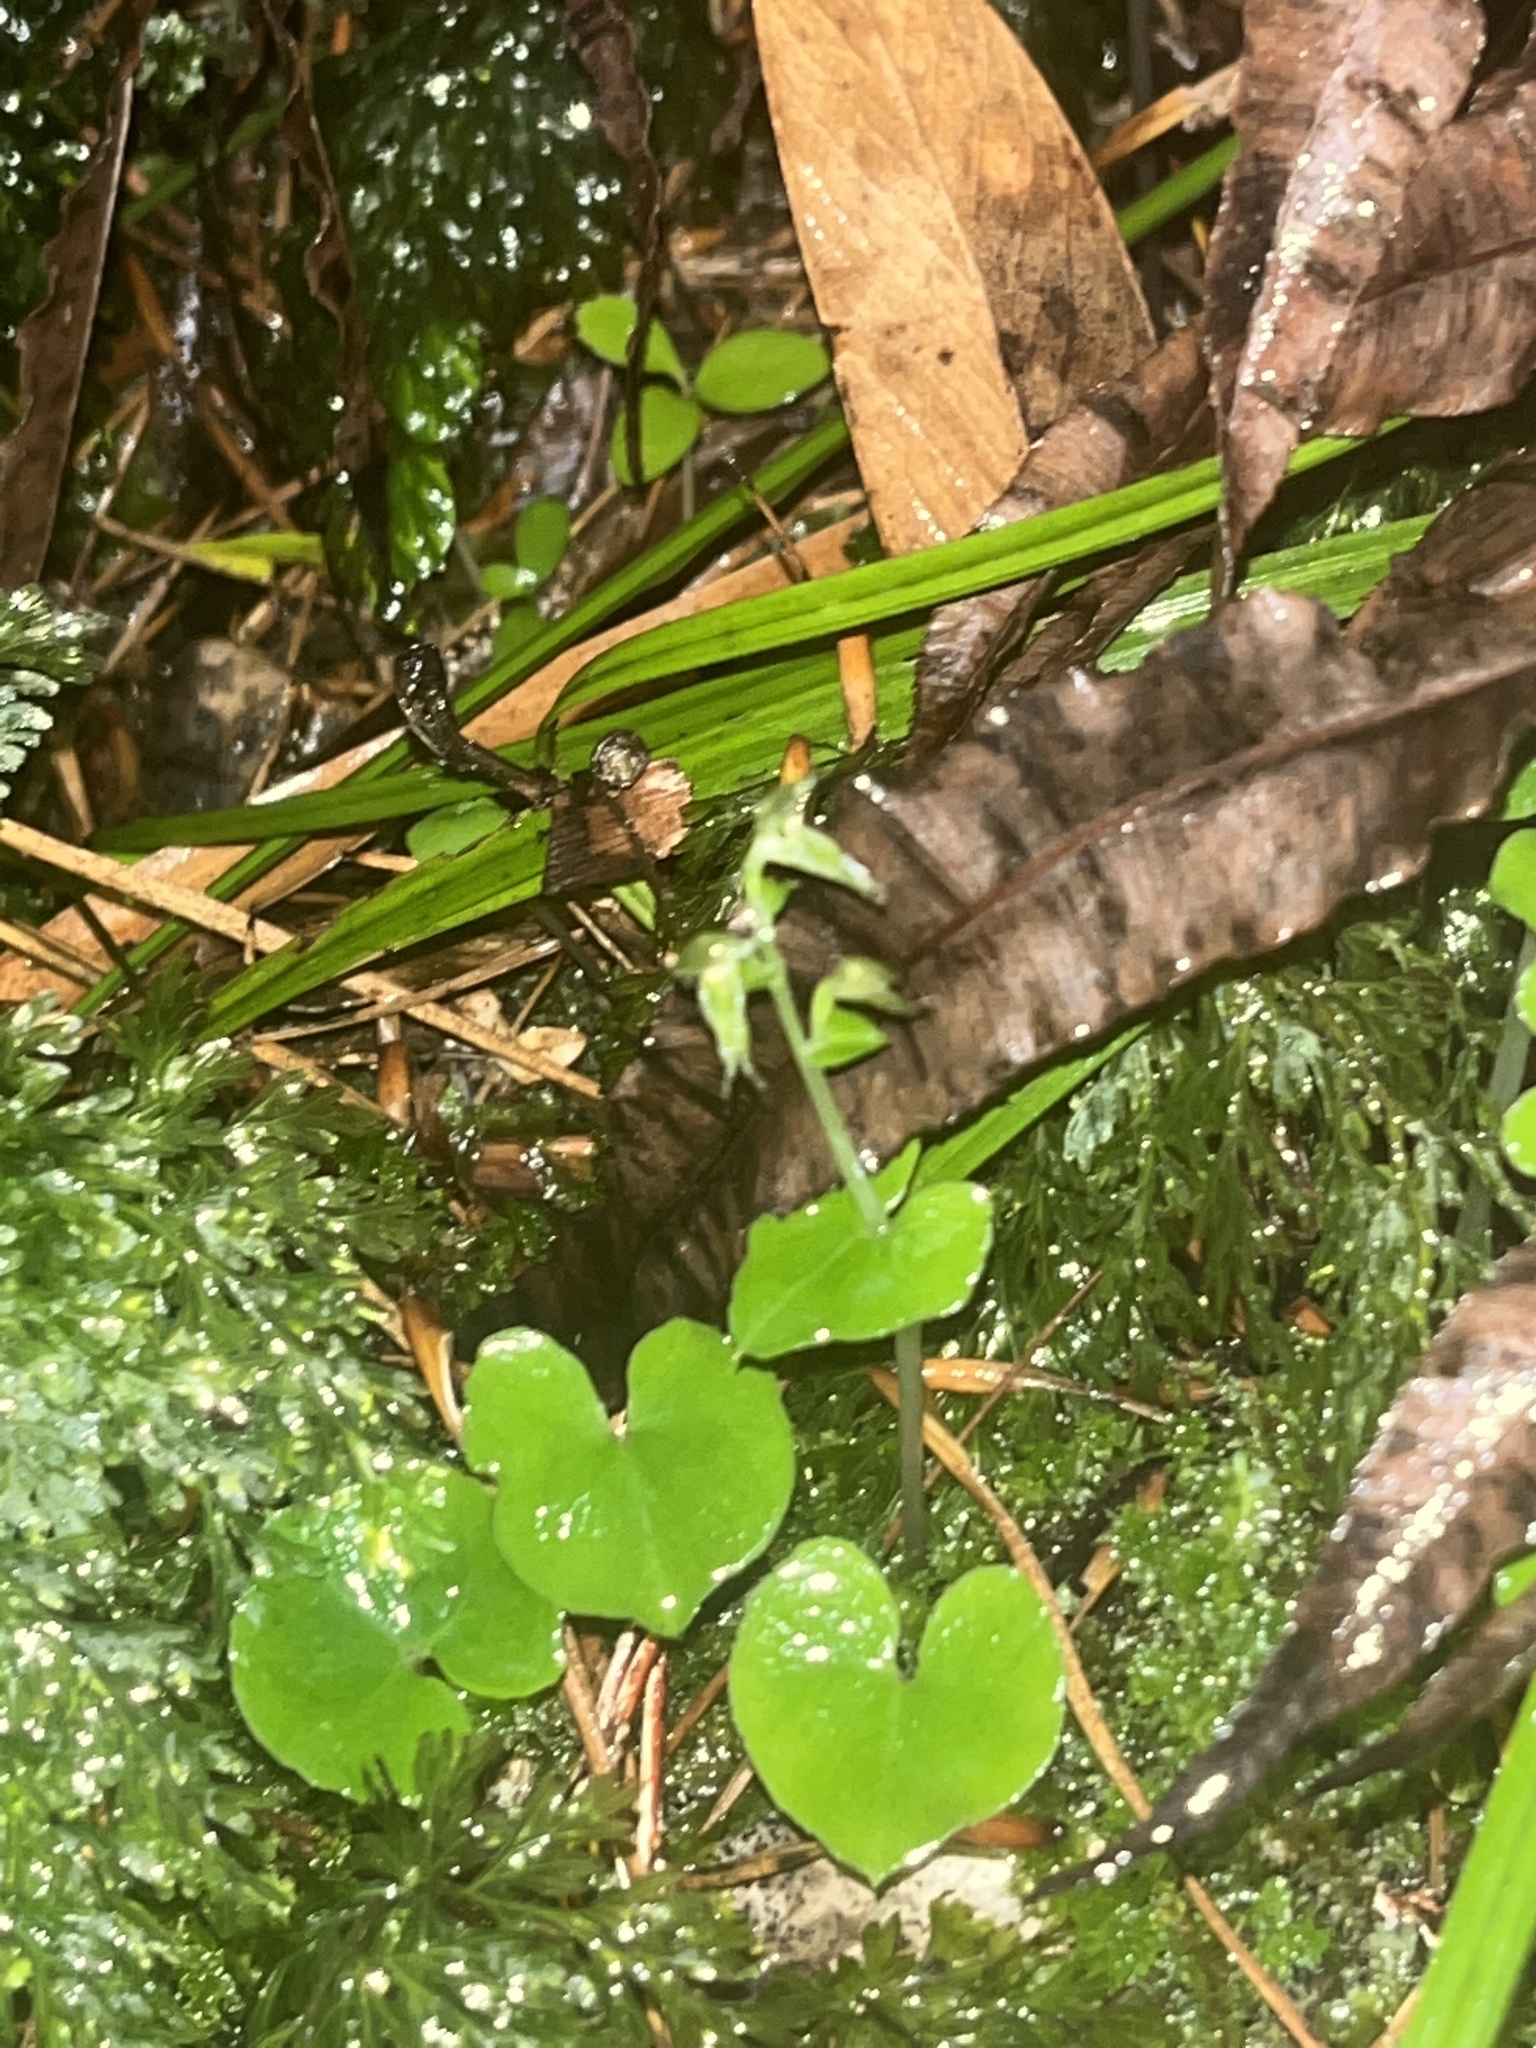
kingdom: Plantae
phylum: Tracheophyta
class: Liliopsida
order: Asparagales
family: Orchidaceae
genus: Acianthus
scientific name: Acianthus sinclairii
